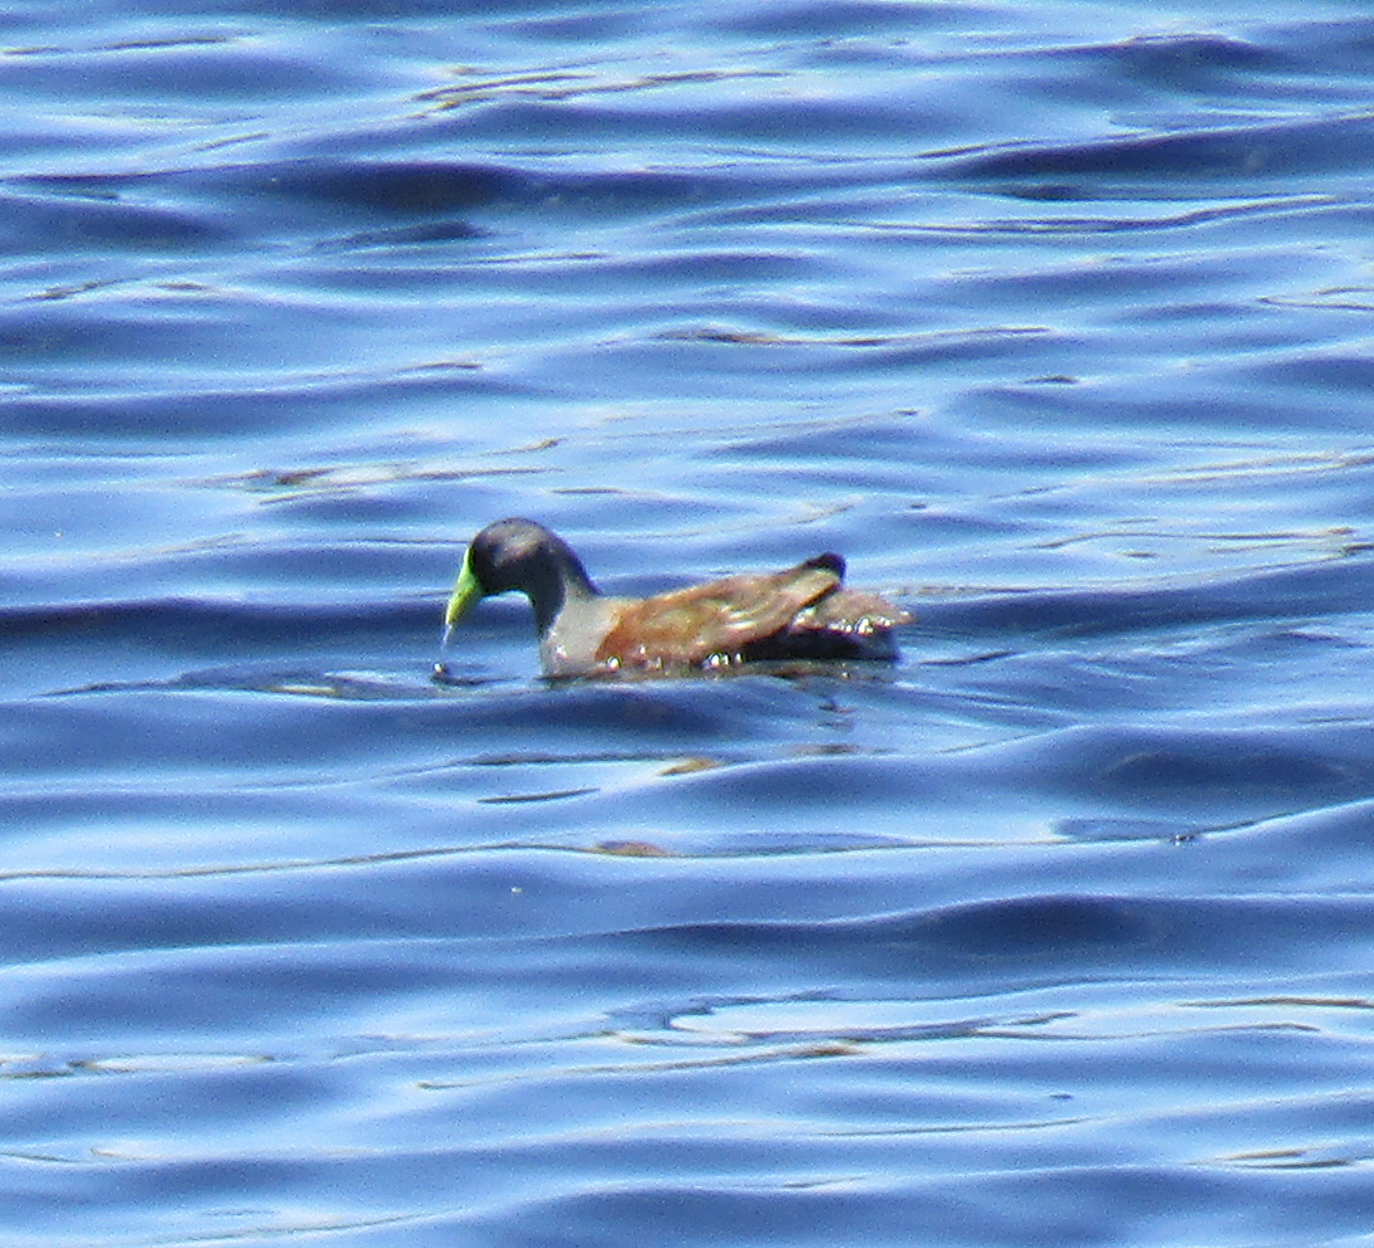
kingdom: Animalia
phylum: Chordata
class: Aves
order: Gruiformes
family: Rallidae
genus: Gallinula
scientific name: Gallinula melanops
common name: Spot-flanked gallinule
